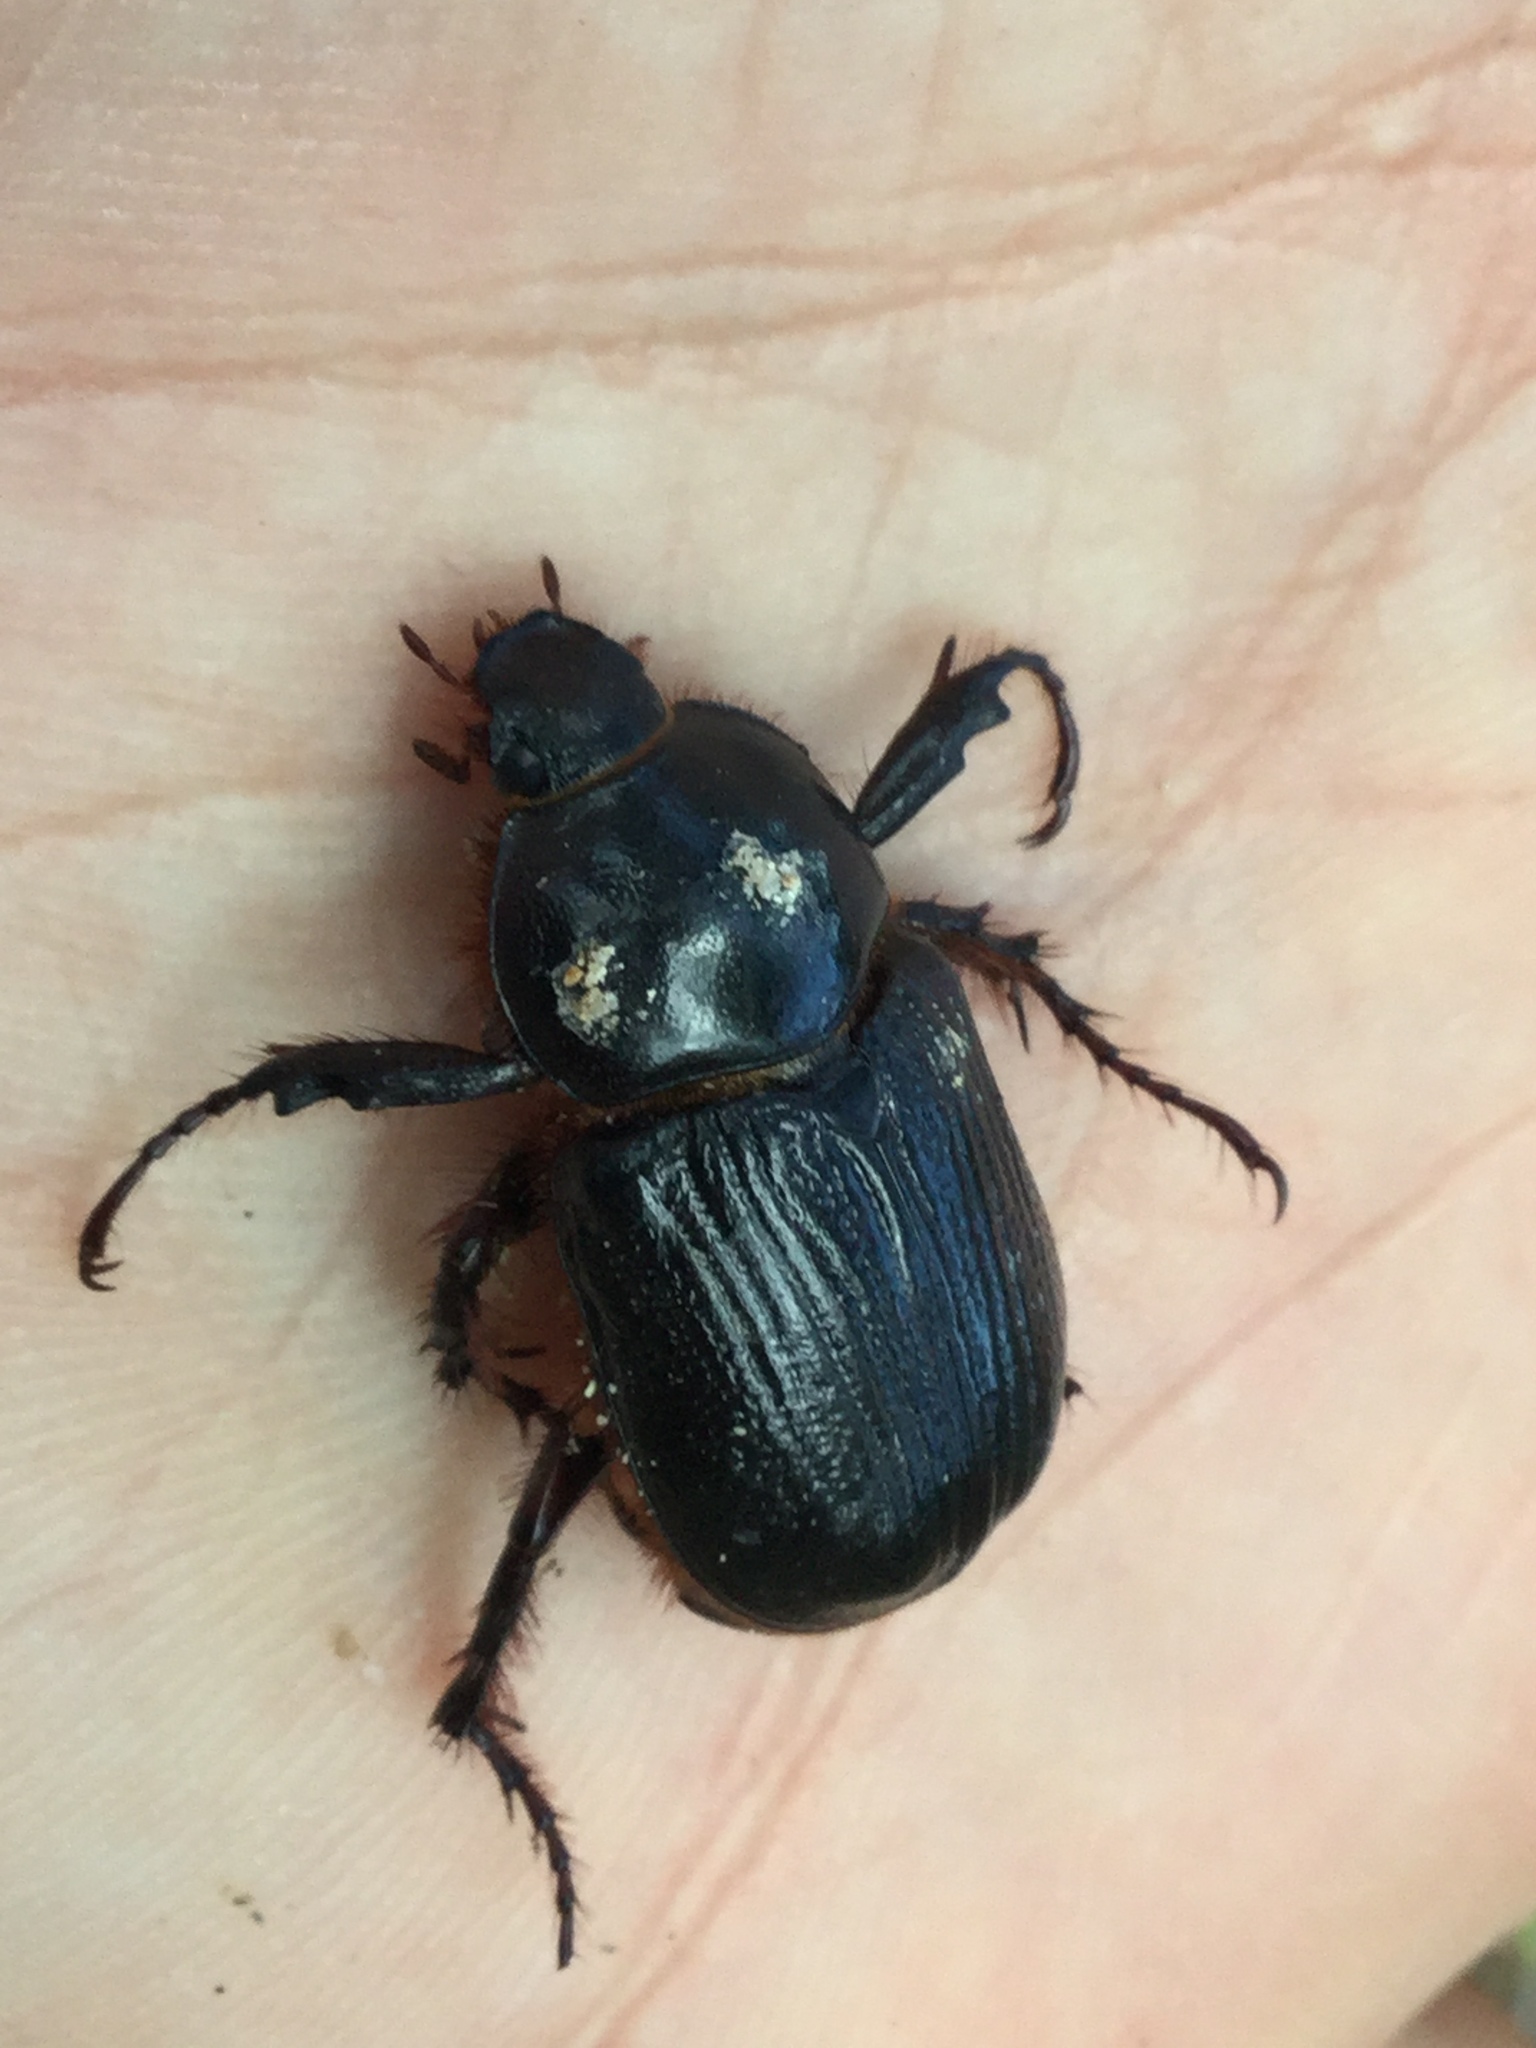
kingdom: Animalia
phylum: Arthropoda
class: Insecta
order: Coleoptera
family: Scarabaeidae
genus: Coscinocephalus
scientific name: Coscinocephalus cribrifrons
